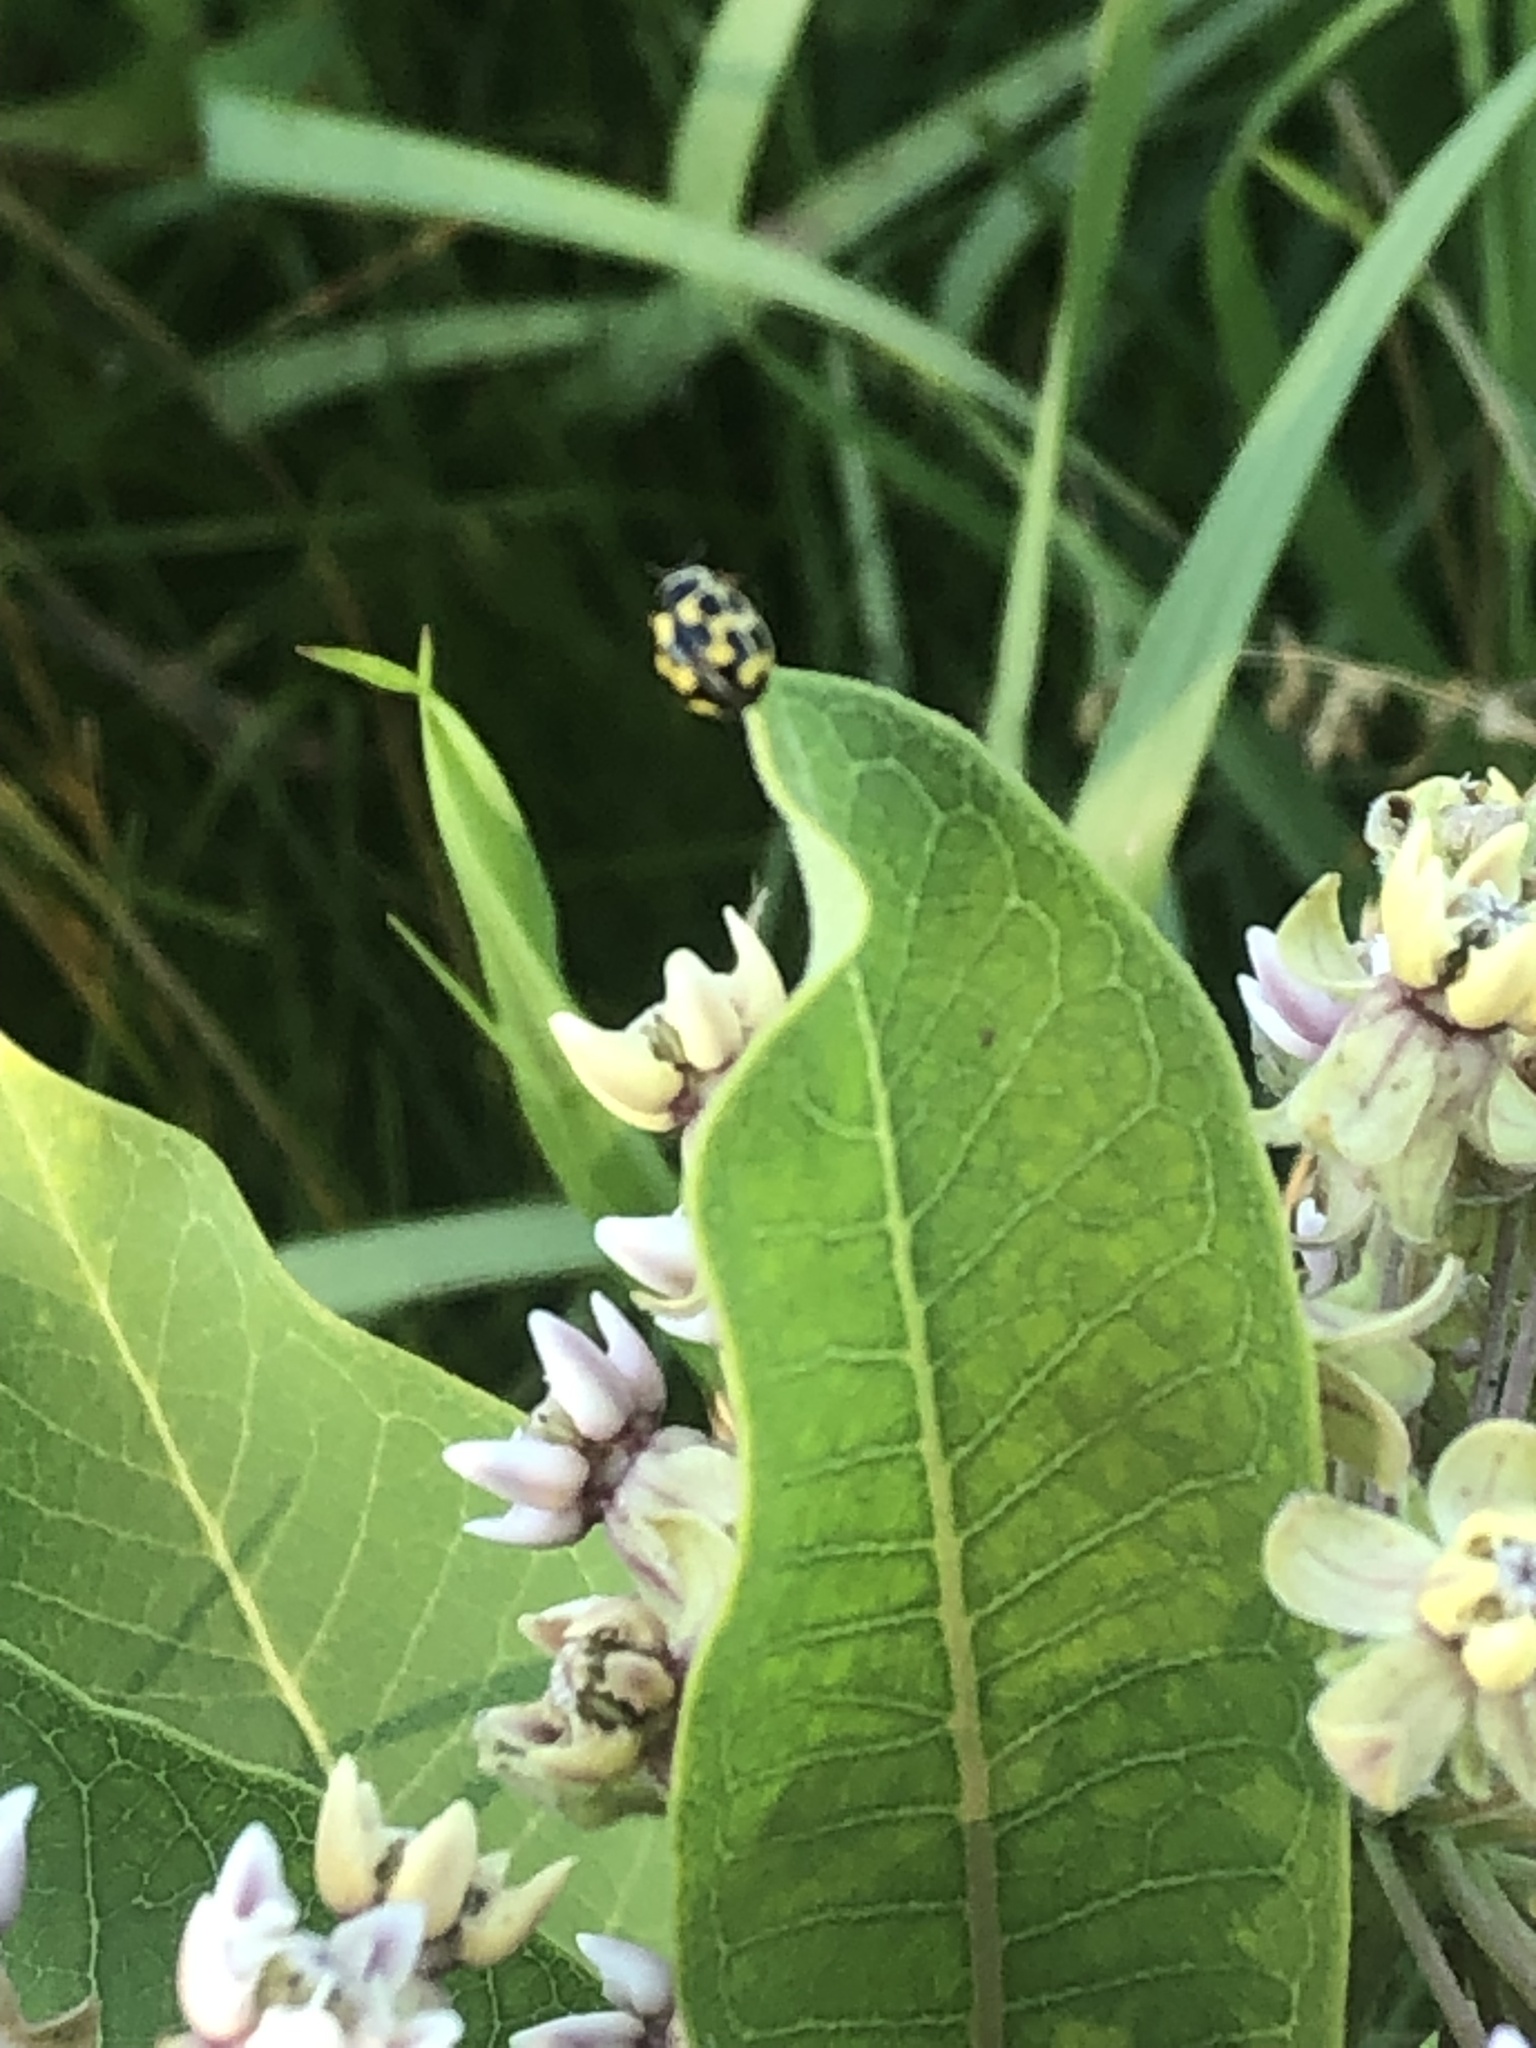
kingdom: Animalia
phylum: Arthropoda
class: Insecta
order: Coleoptera
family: Coccinellidae
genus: Propylaea
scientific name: Propylaea quatuordecimpunctata
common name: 14-spotted ladybird beetle
